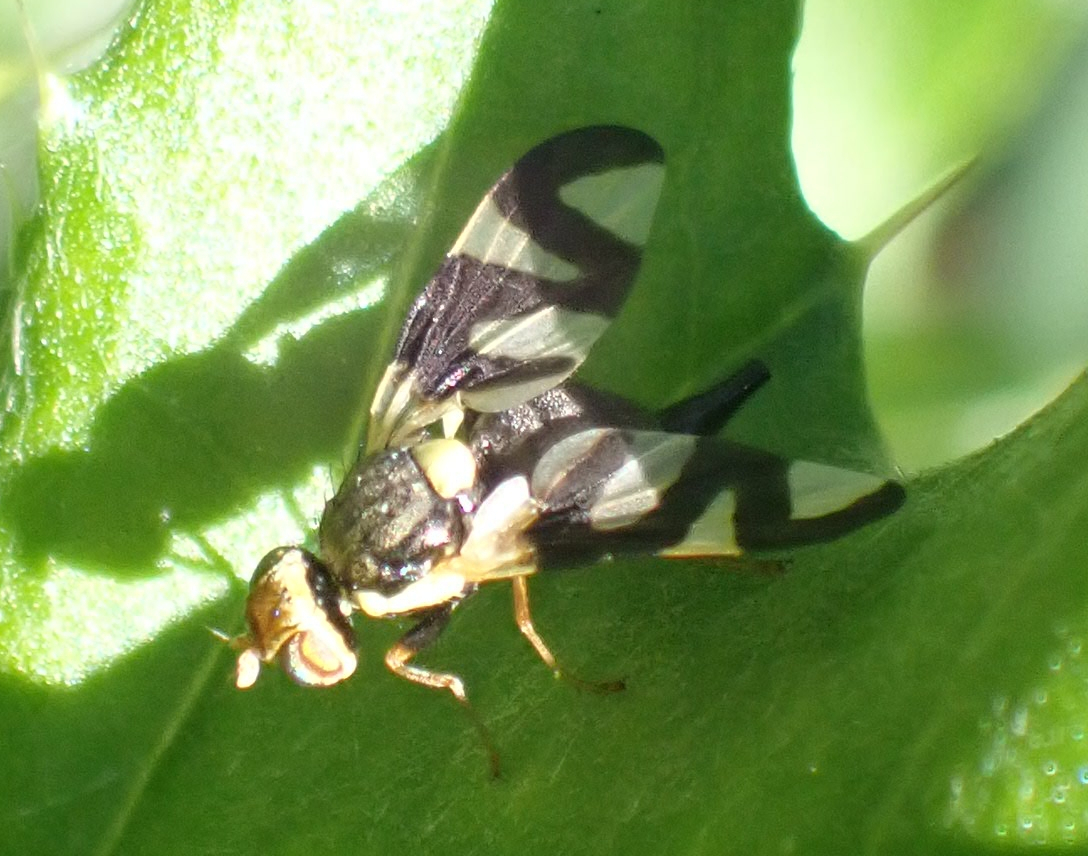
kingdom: Animalia
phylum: Arthropoda
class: Insecta
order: Diptera
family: Tephritidae
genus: Urophora
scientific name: Urophora cardui
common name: Fruit fly
